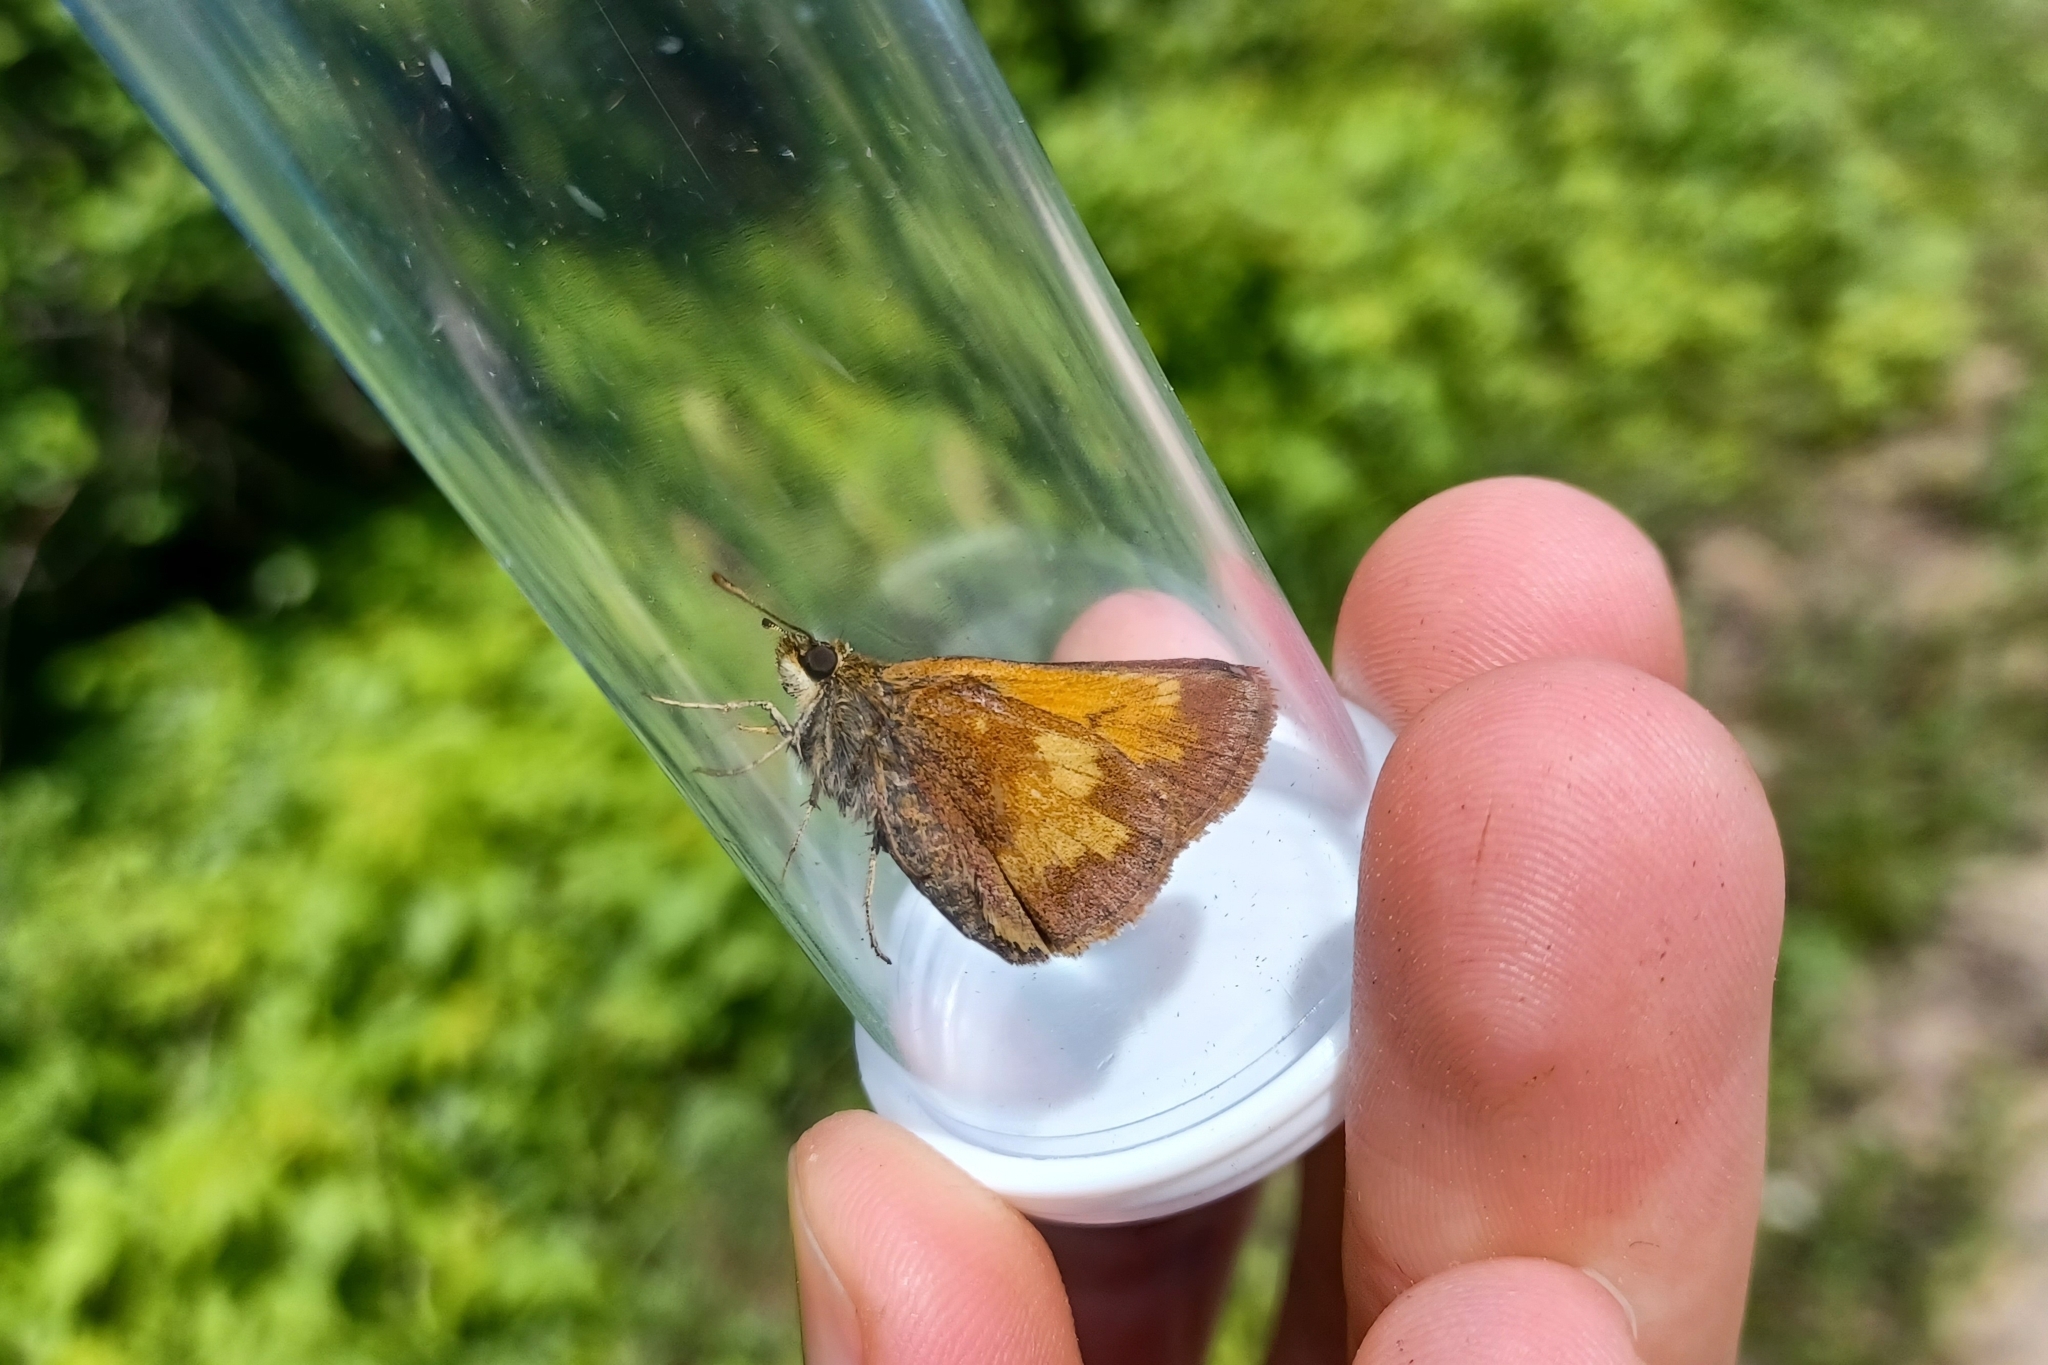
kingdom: Animalia
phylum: Arthropoda
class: Insecta
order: Lepidoptera
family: Hesperiidae
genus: Lon
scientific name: Lon hobomok
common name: Hobomok skipper
